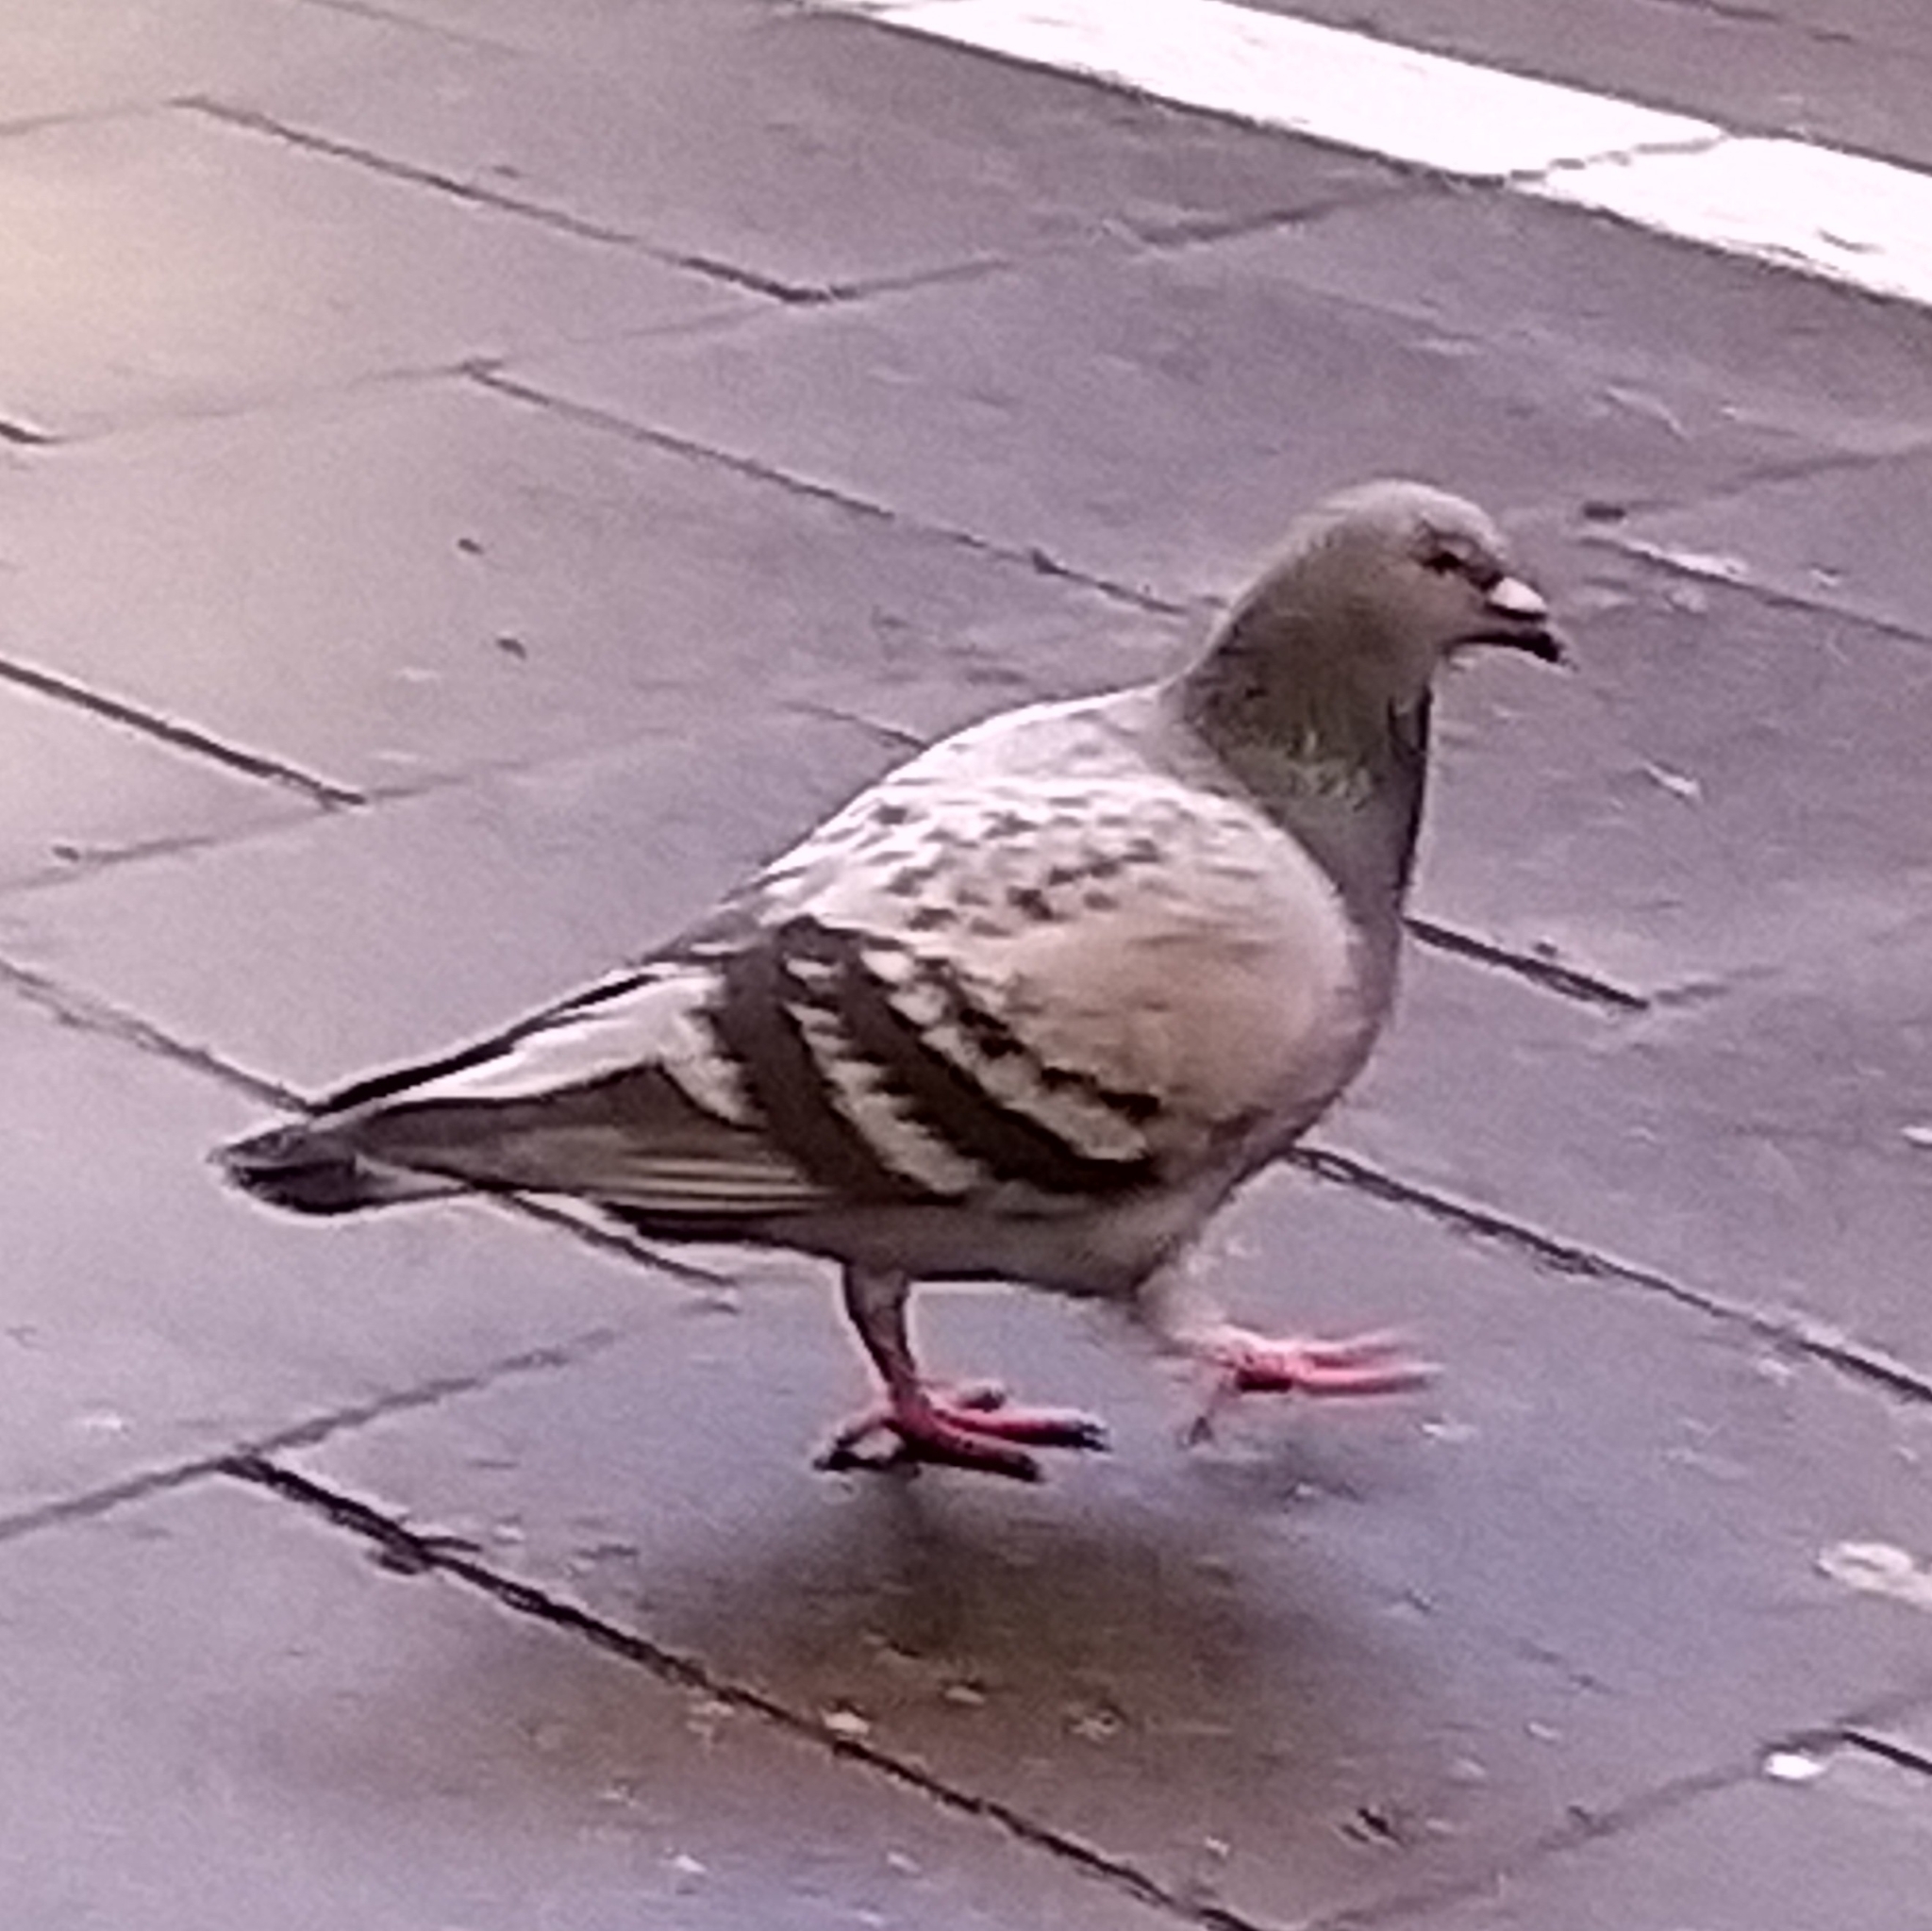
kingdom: Animalia
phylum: Chordata
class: Aves
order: Columbiformes
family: Columbidae
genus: Columba
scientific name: Columba livia
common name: Rock pigeon
